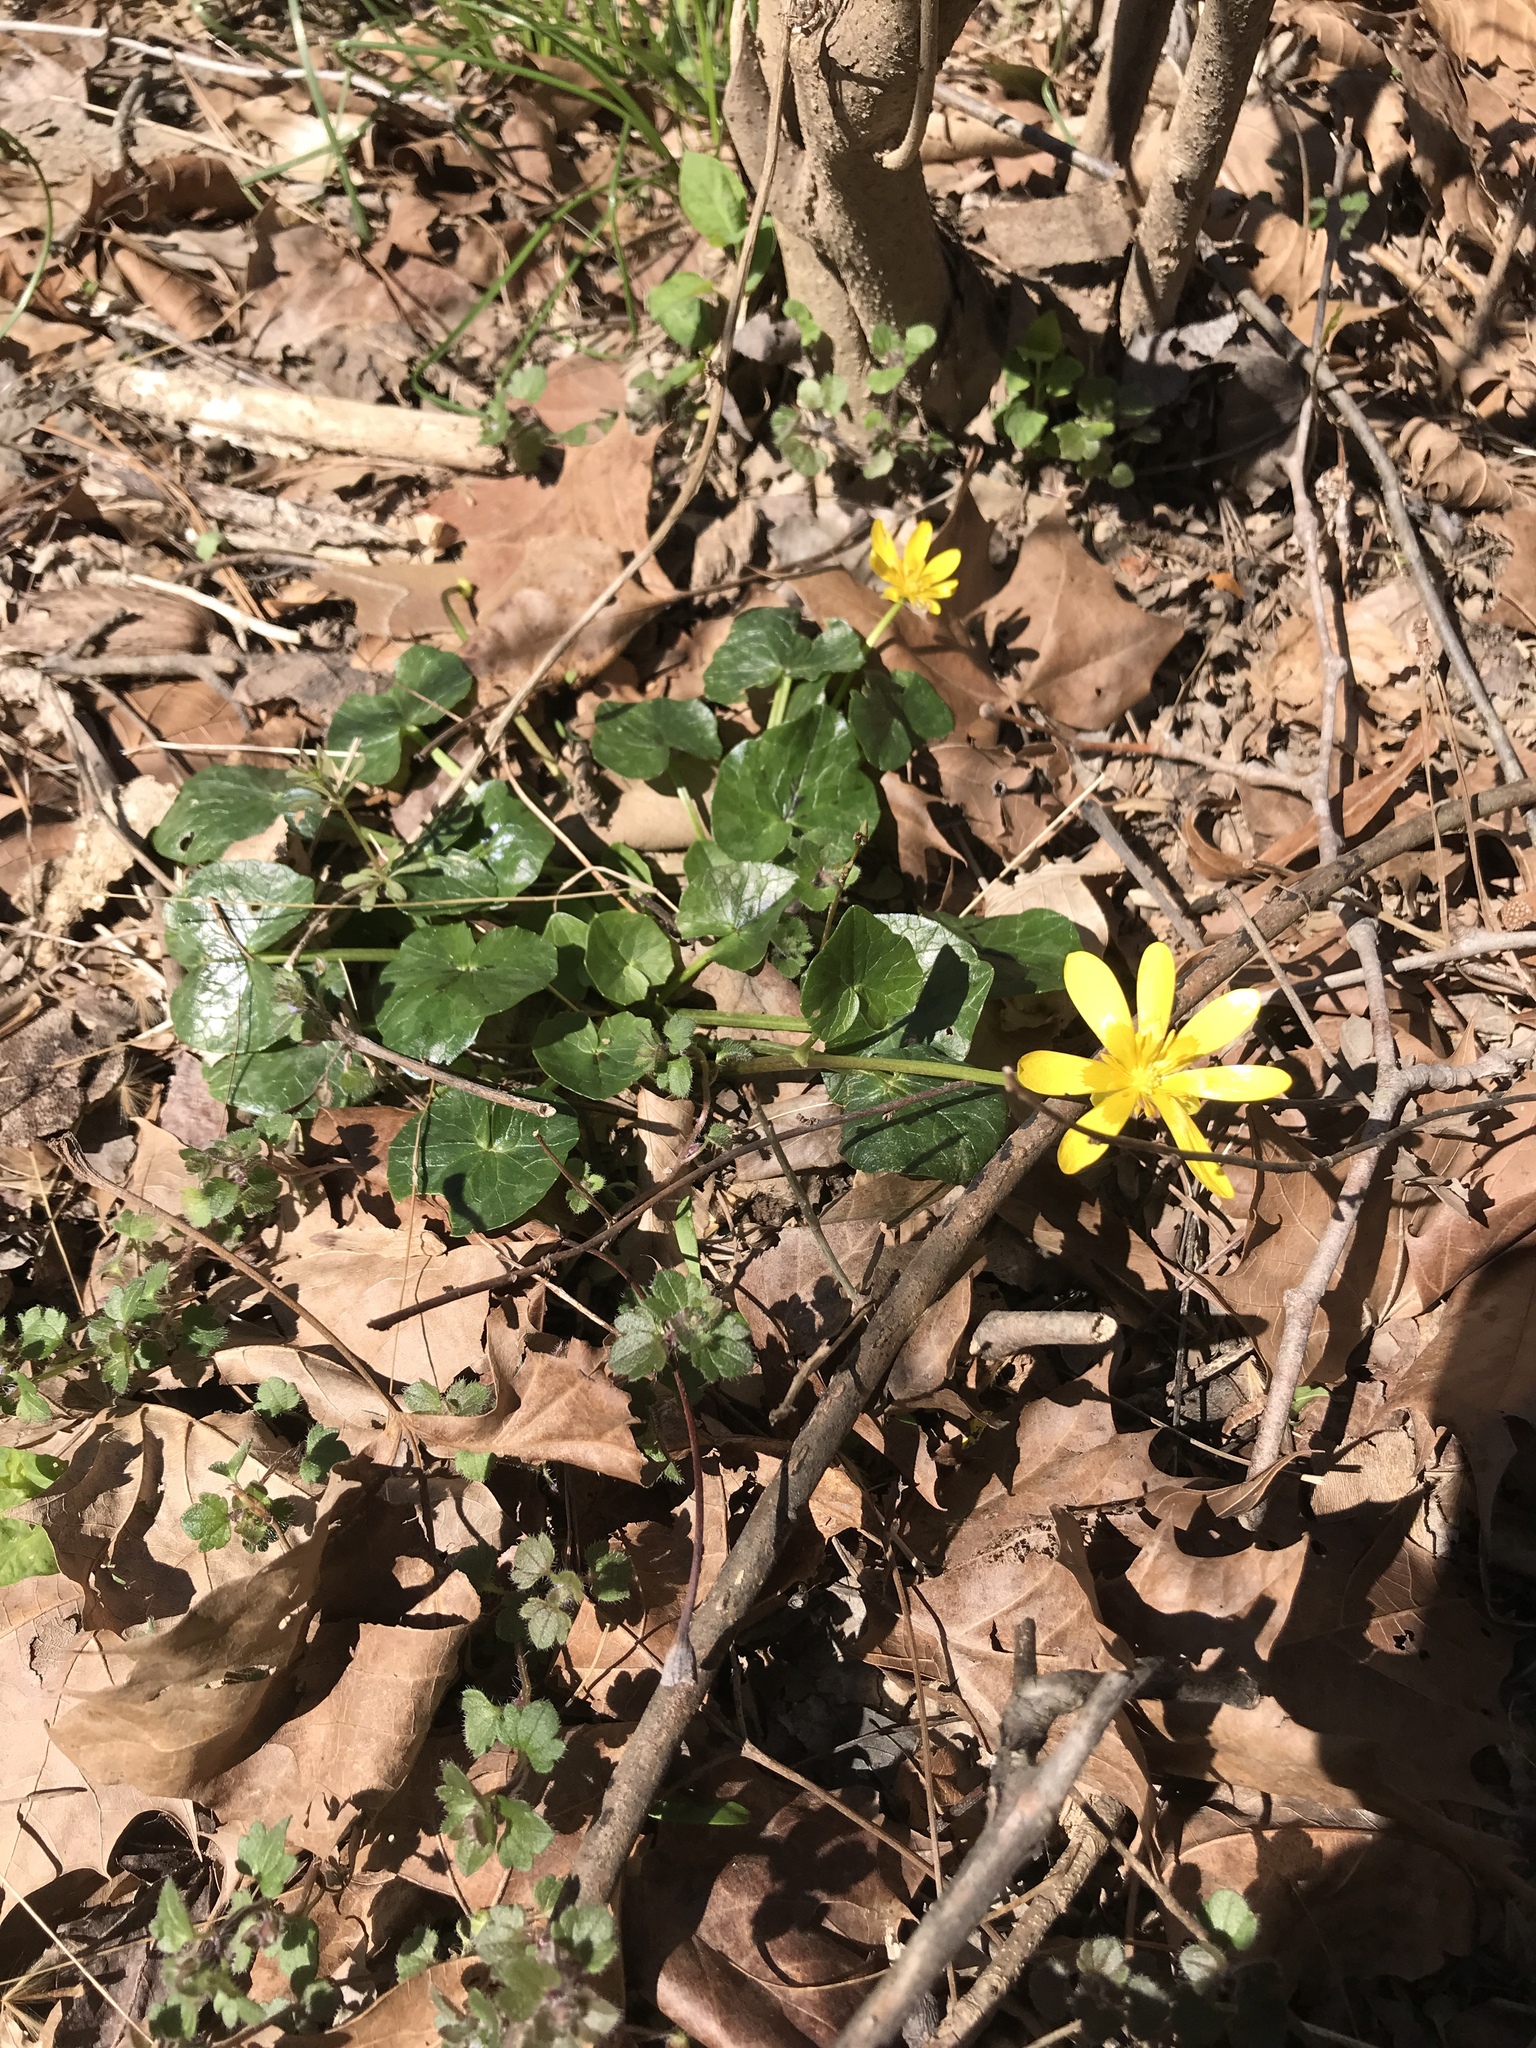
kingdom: Plantae
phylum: Tracheophyta
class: Magnoliopsida
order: Ranunculales
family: Ranunculaceae
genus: Ficaria
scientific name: Ficaria verna
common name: Lesser celandine
